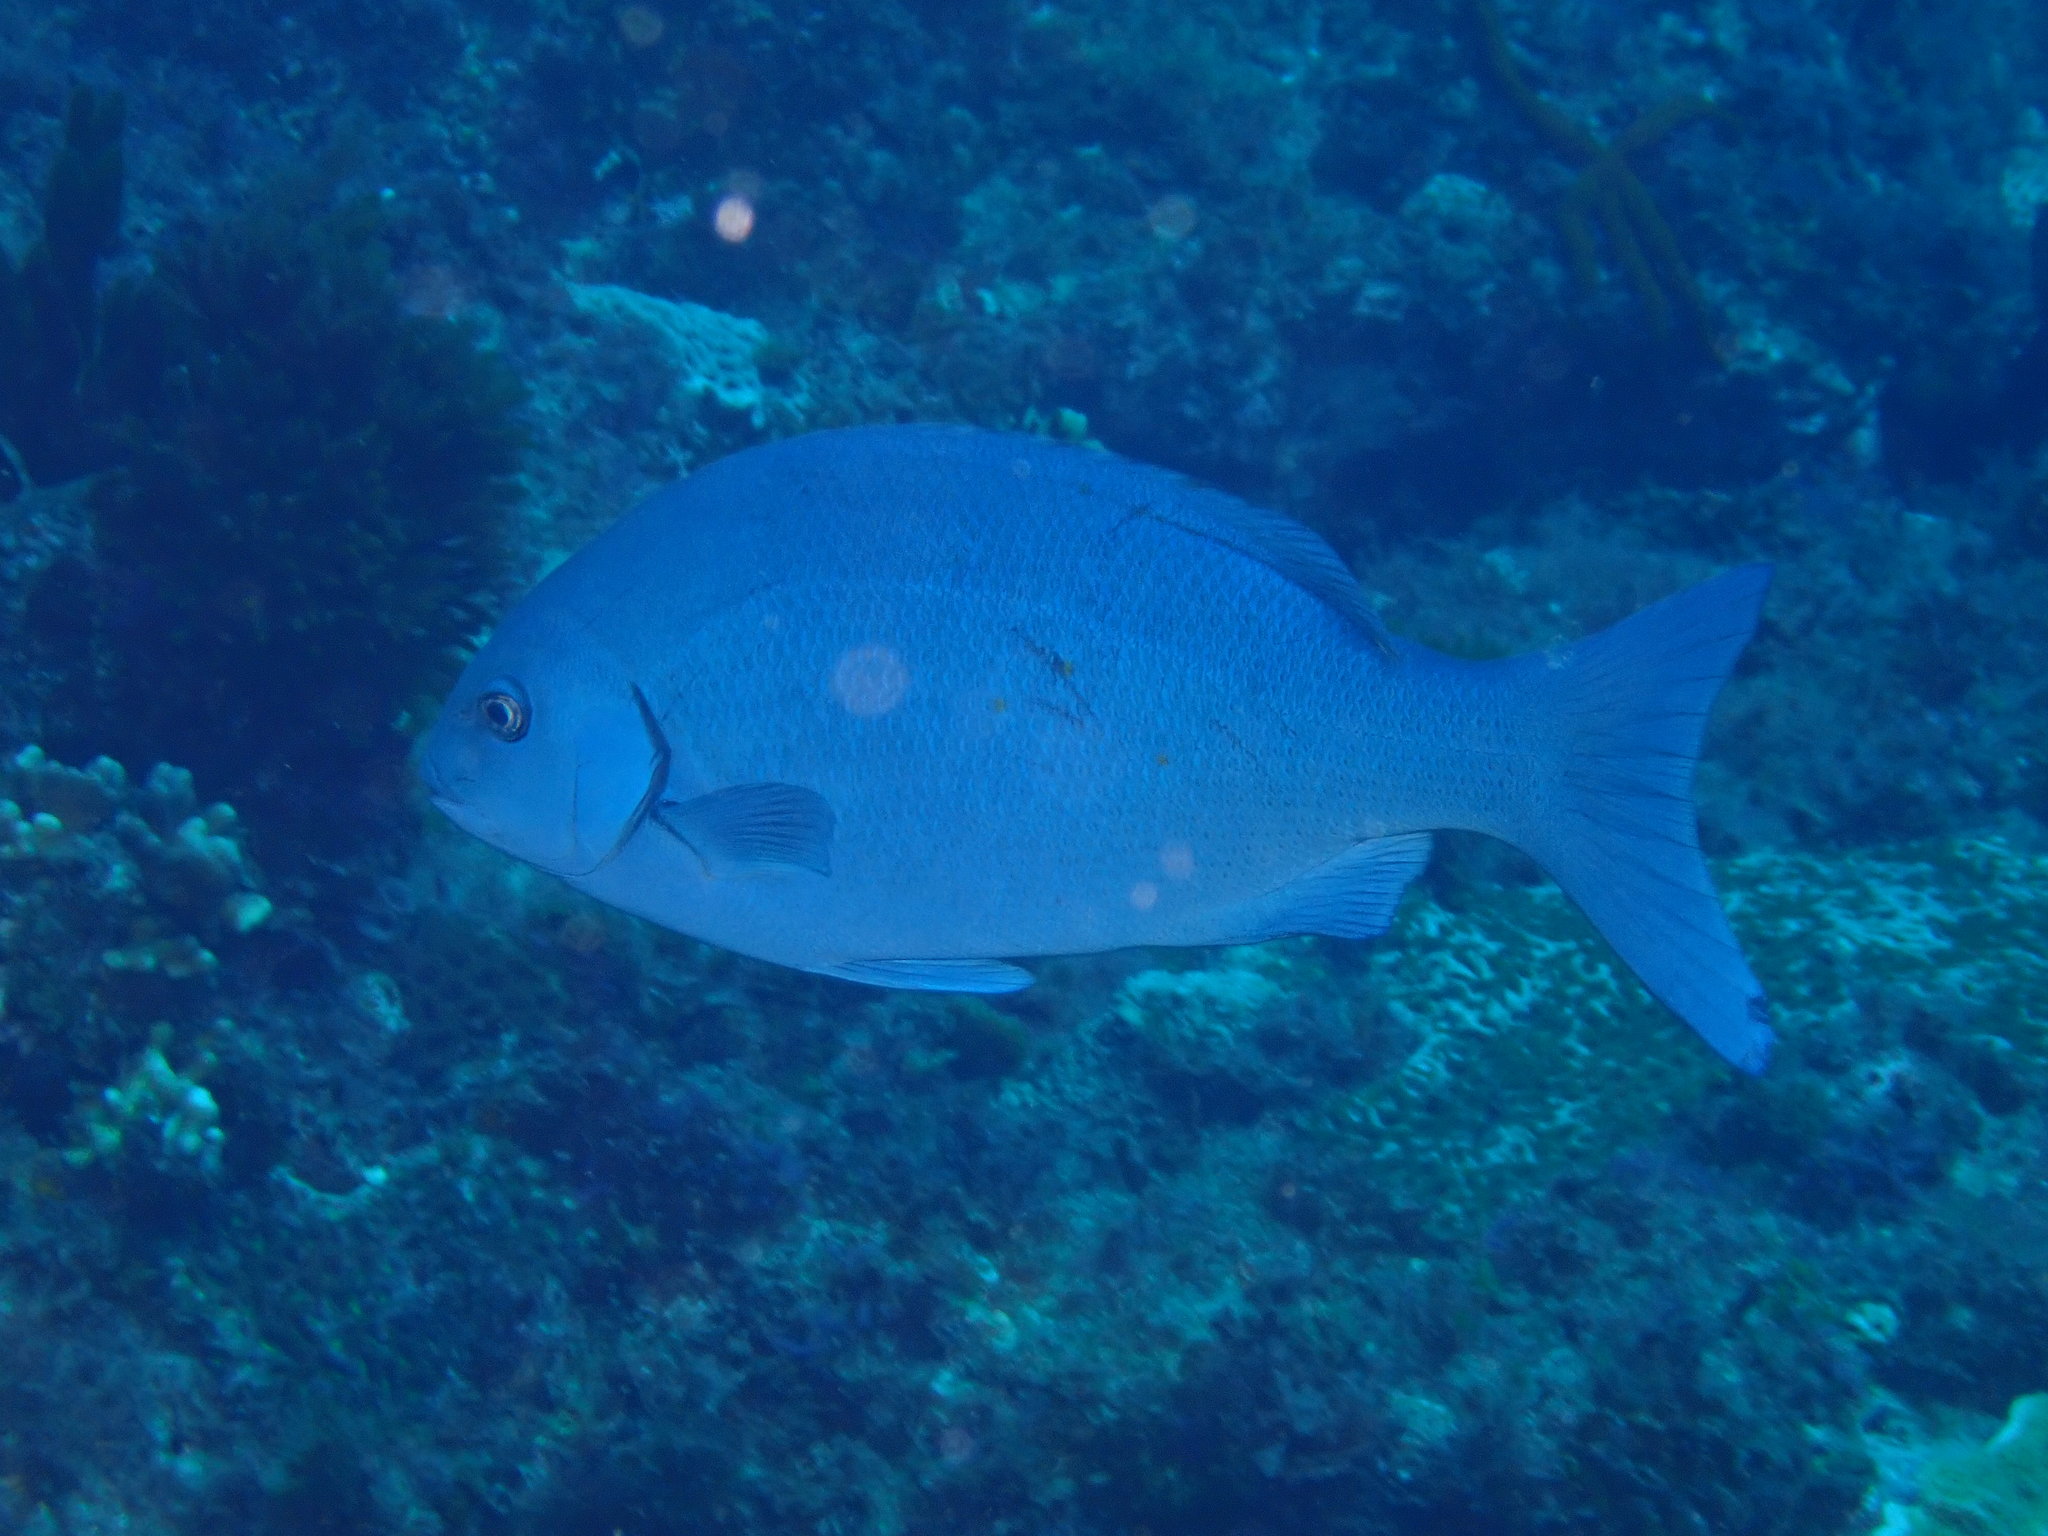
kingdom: Animalia
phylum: Chordata
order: Perciformes
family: Kyphosidae
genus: Girella
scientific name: Girella cyanea
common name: Bluefish
